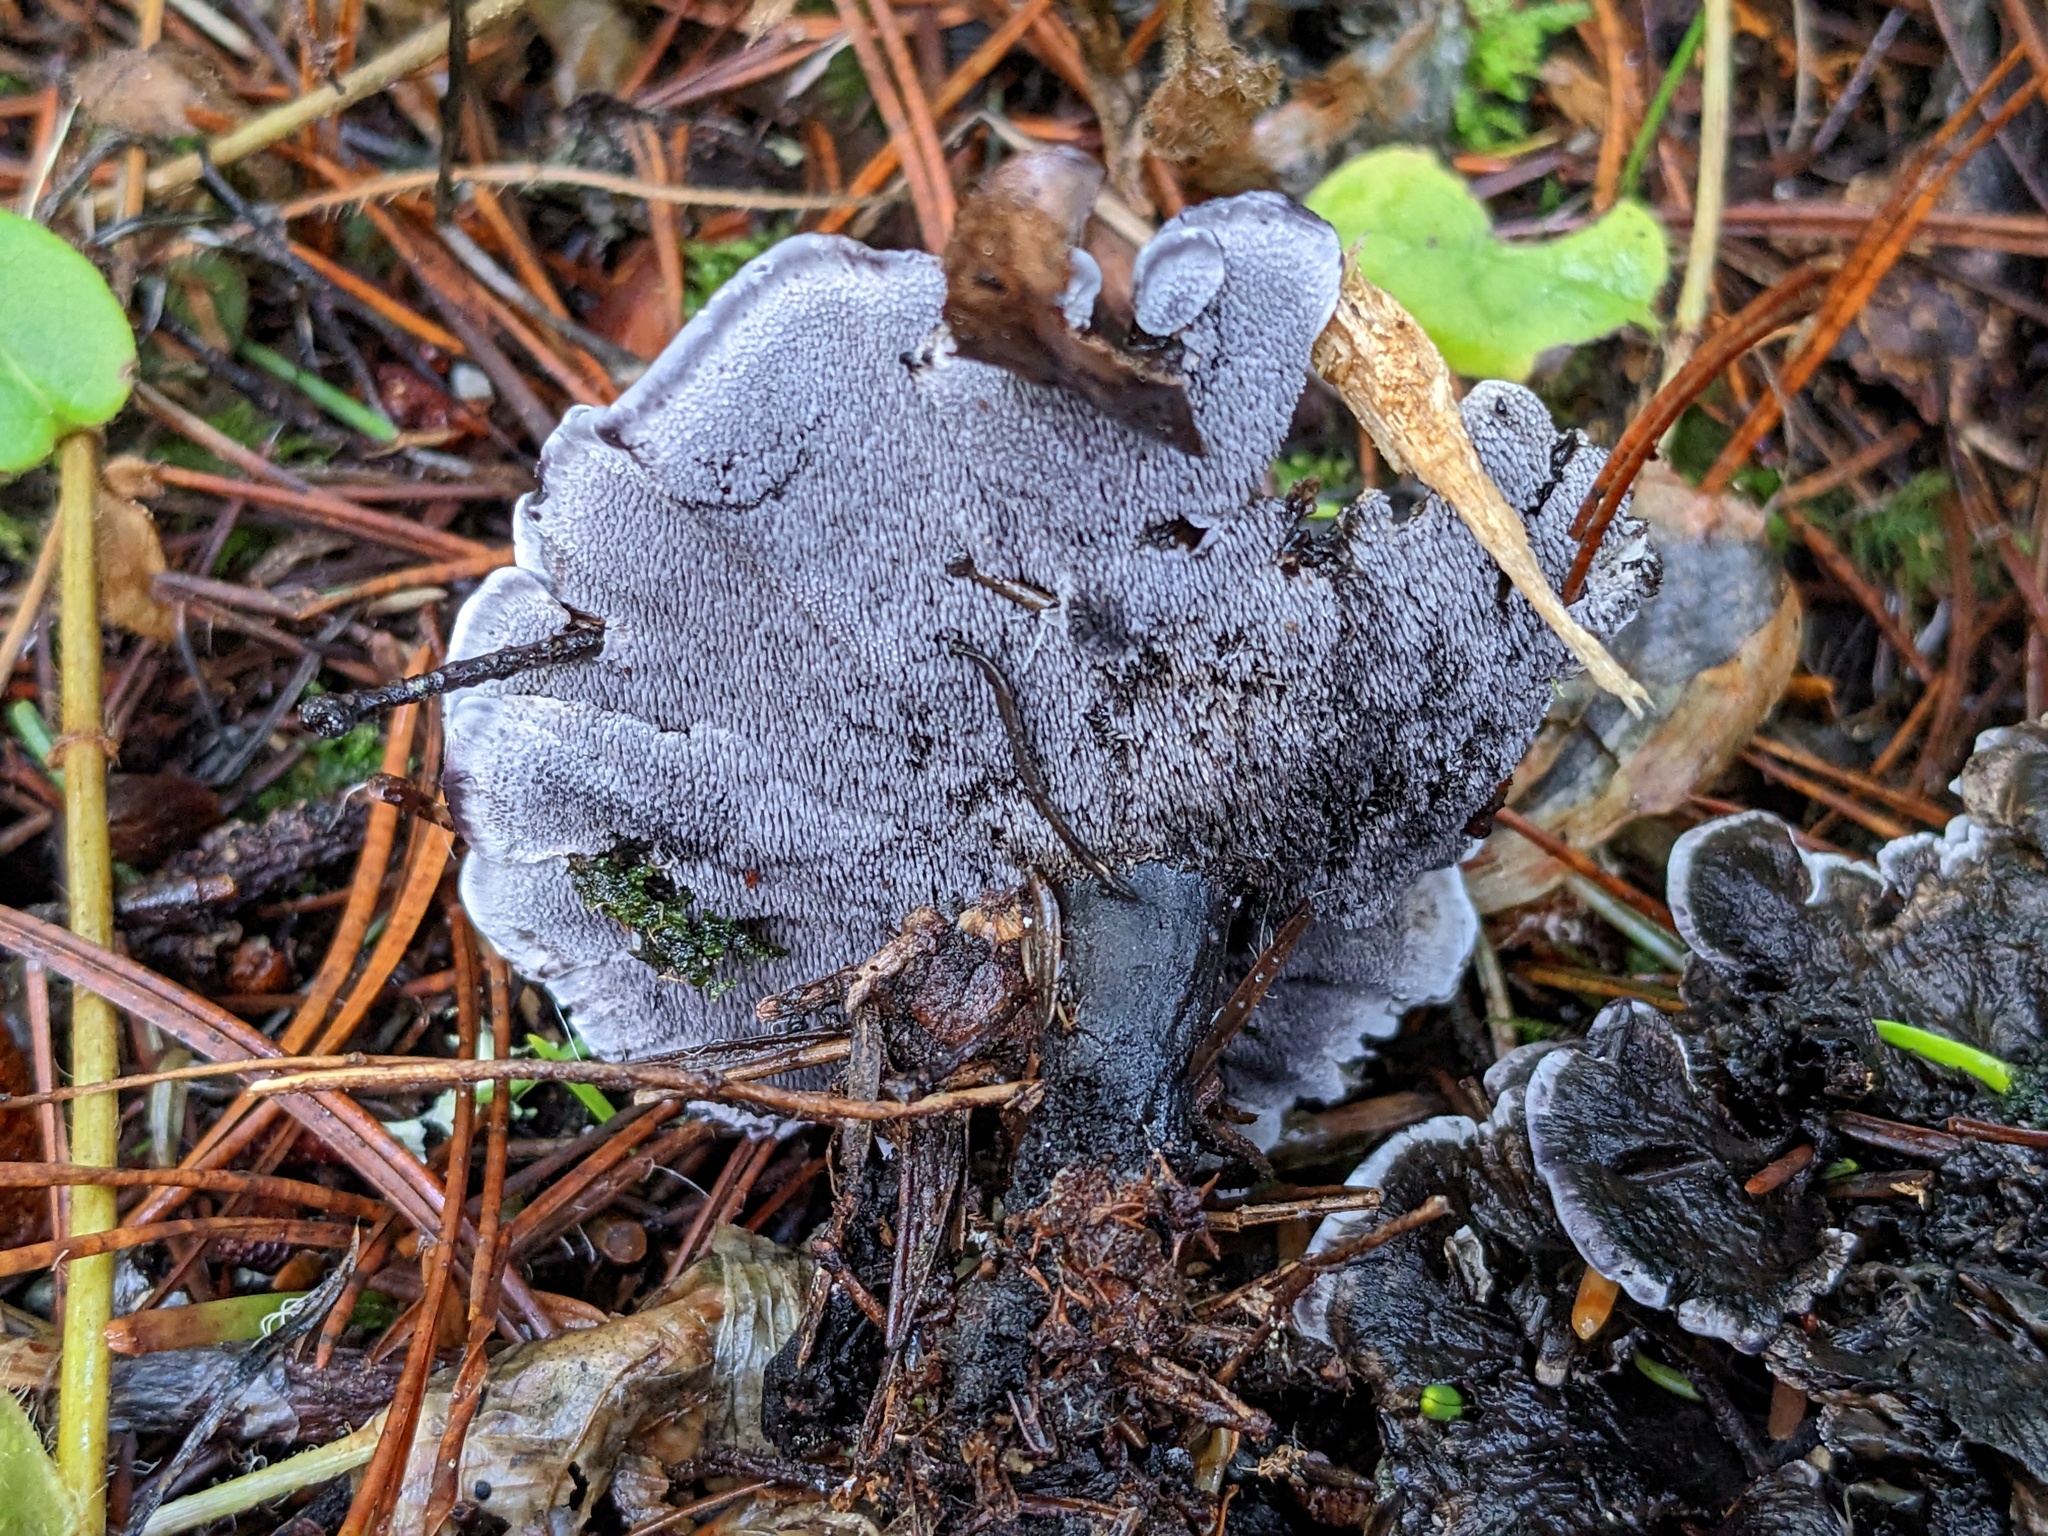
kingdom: Fungi
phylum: Basidiomycota
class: Agaricomycetes
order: Thelephorales
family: Thelephoraceae
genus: Phellodon
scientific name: Phellodon atratus
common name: Blue-black tooth
